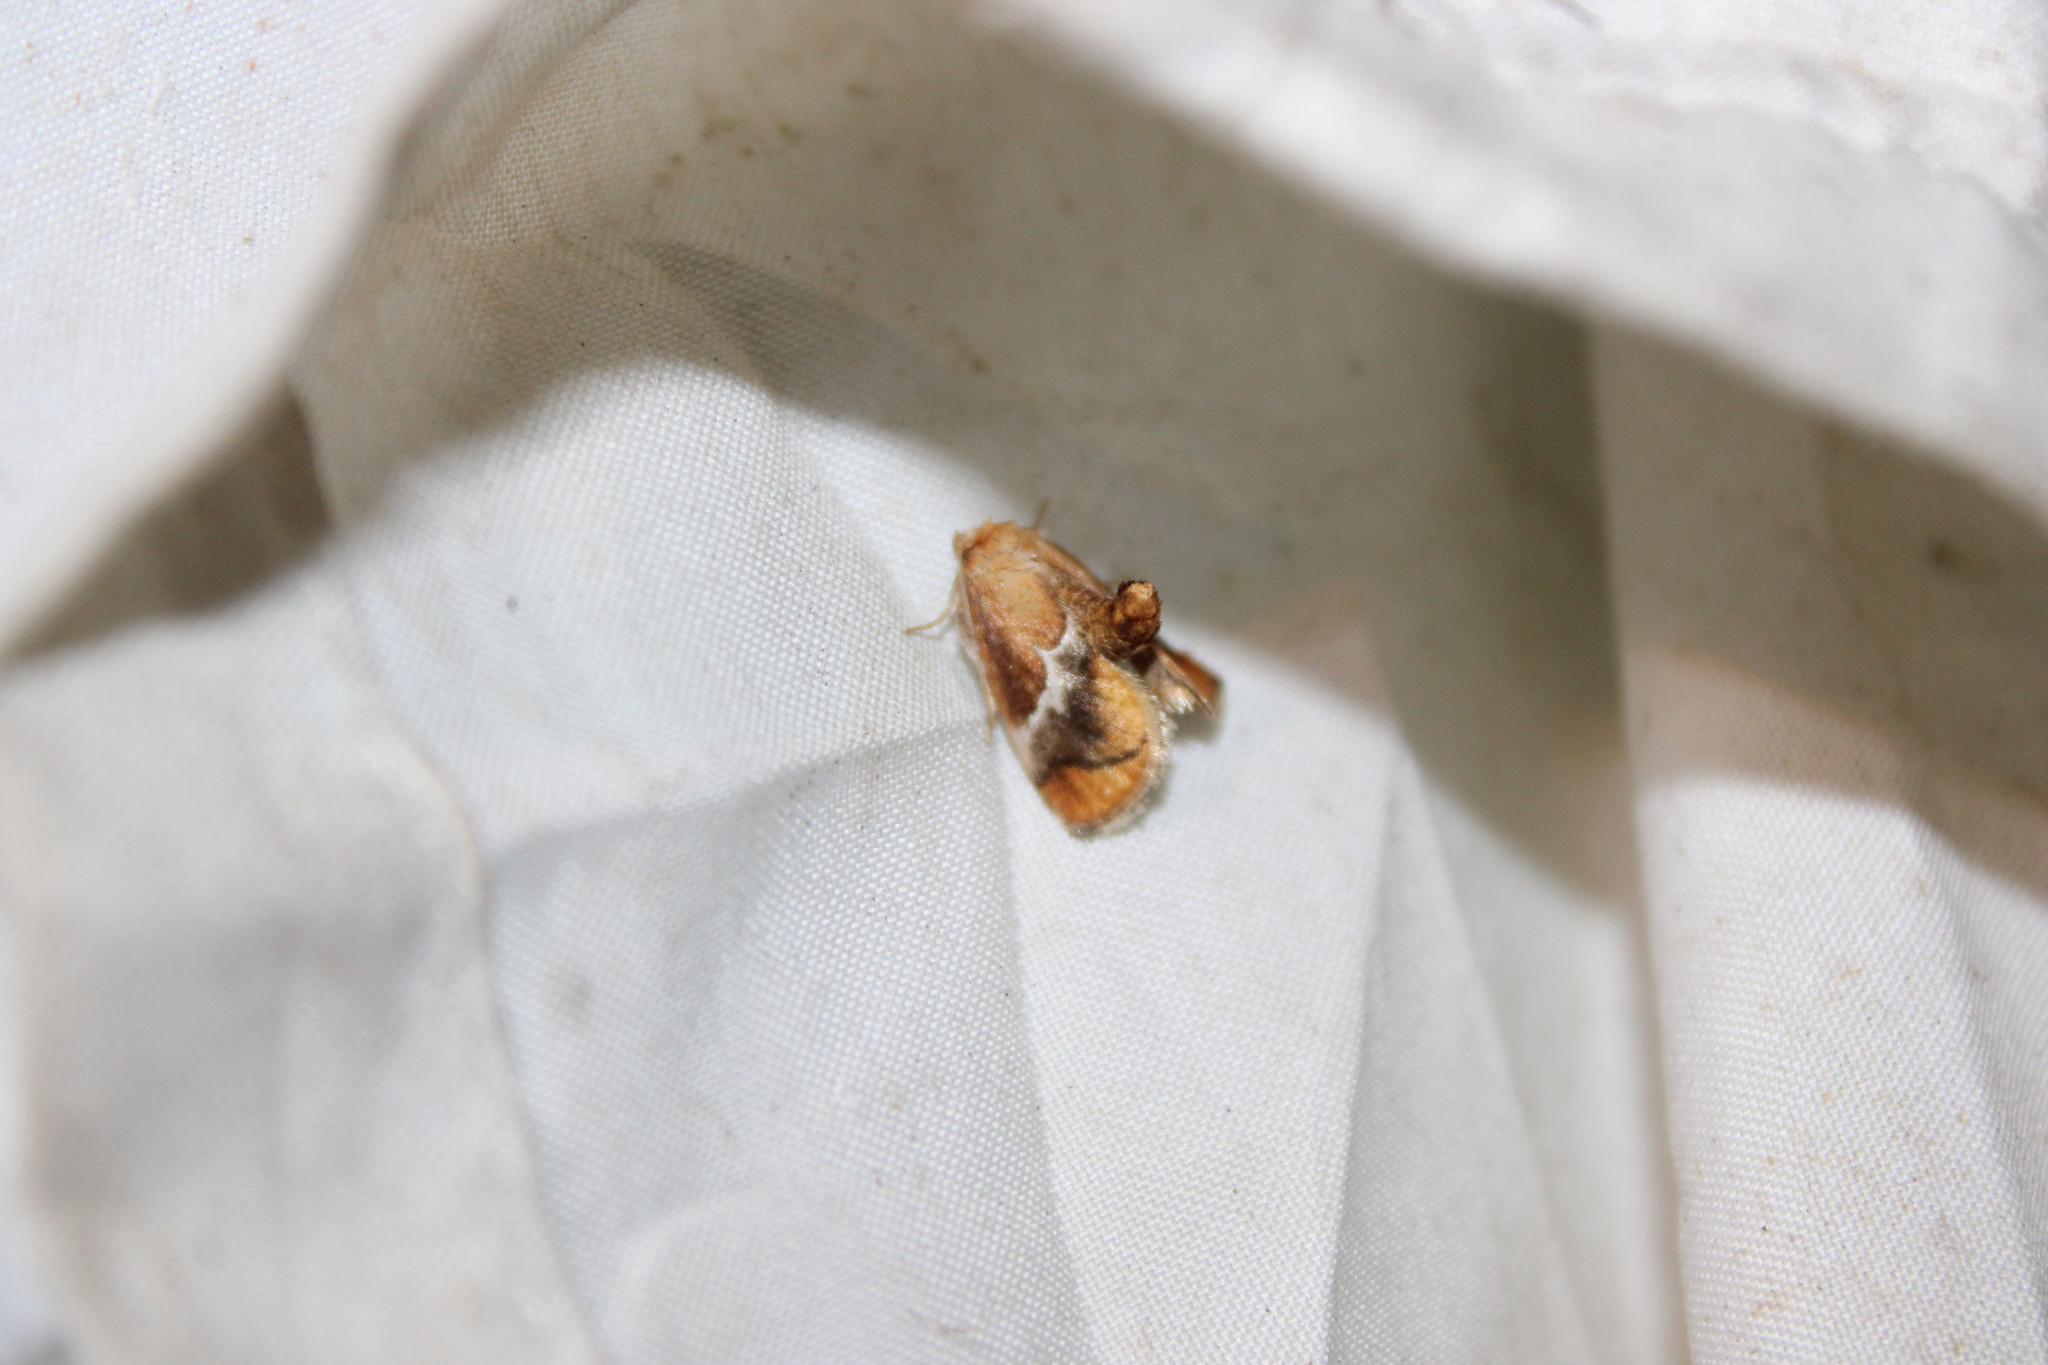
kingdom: Animalia
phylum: Arthropoda
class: Insecta
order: Lepidoptera
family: Limacodidae
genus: Lithacodes
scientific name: Lithacodes fasciola
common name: Yellow-shouldered slug moth
